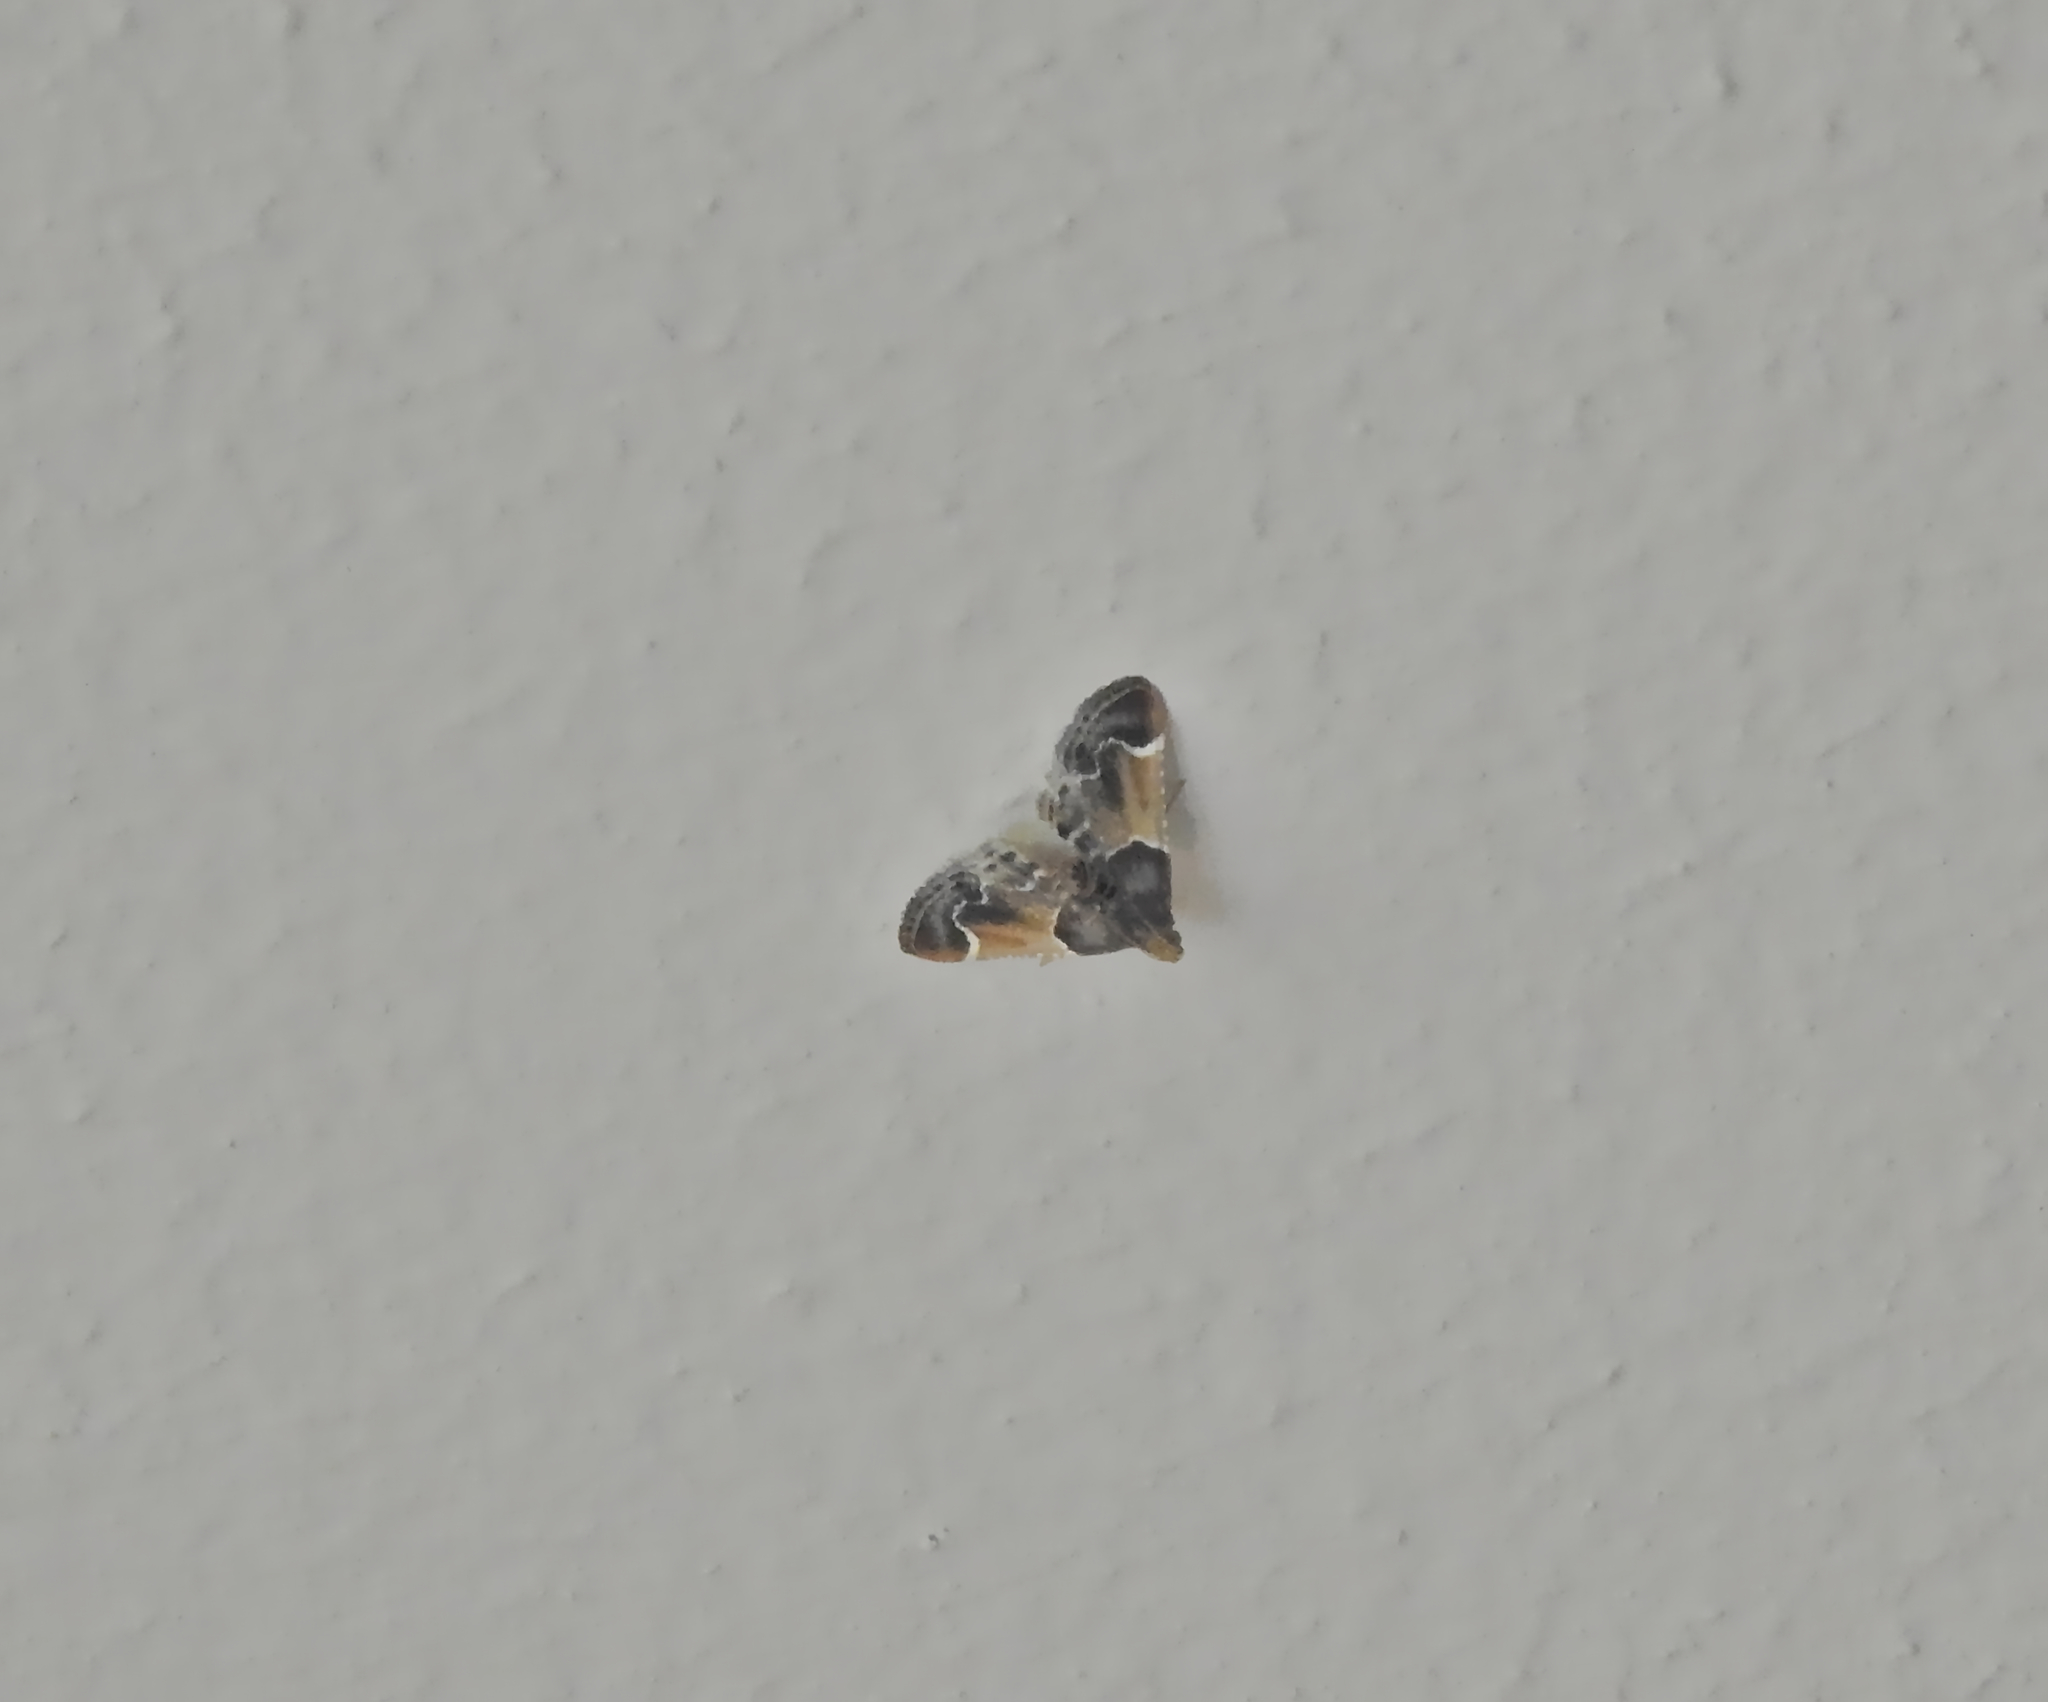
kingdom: Animalia
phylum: Arthropoda
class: Insecta
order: Lepidoptera
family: Pyralidae
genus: Pyralis
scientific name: Pyralis farinalis
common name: Meal moth
